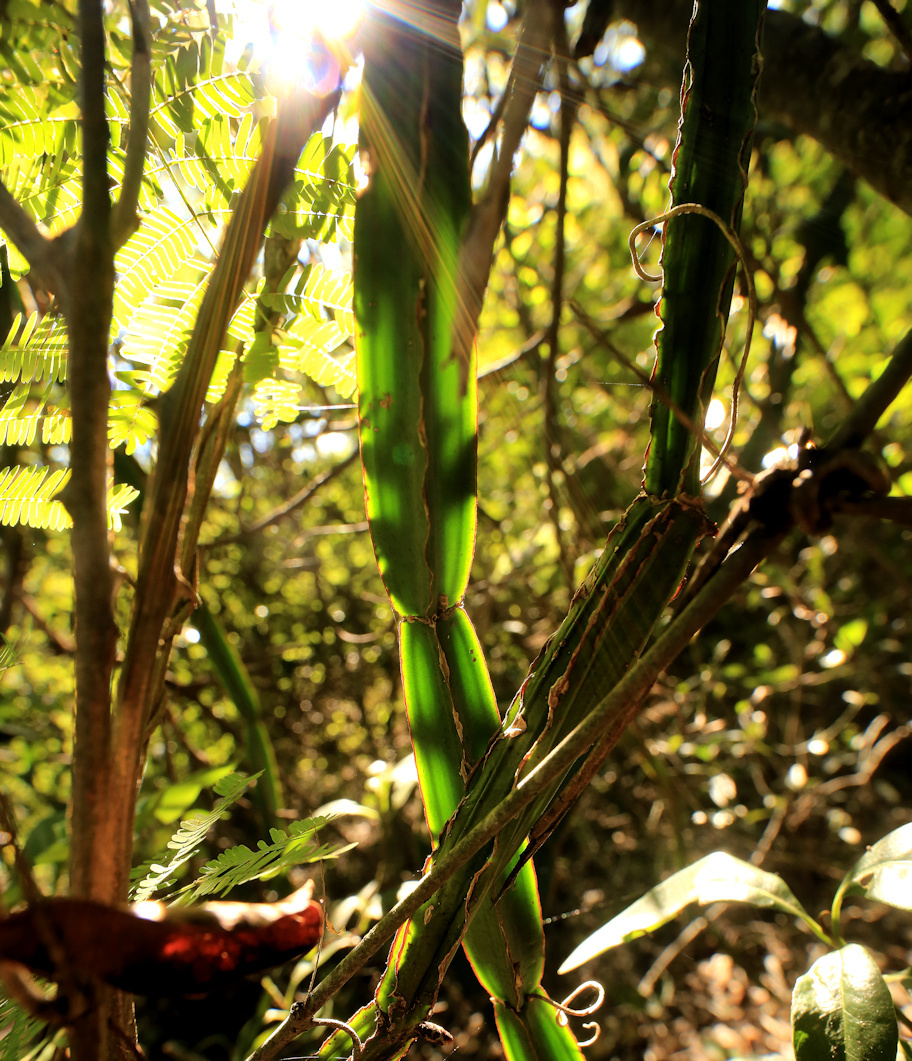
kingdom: Plantae
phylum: Tracheophyta
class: Magnoliopsida
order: Vitales
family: Vitaceae
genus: Cissus
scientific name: Cissus quadrangularis
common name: Veldt-grape
